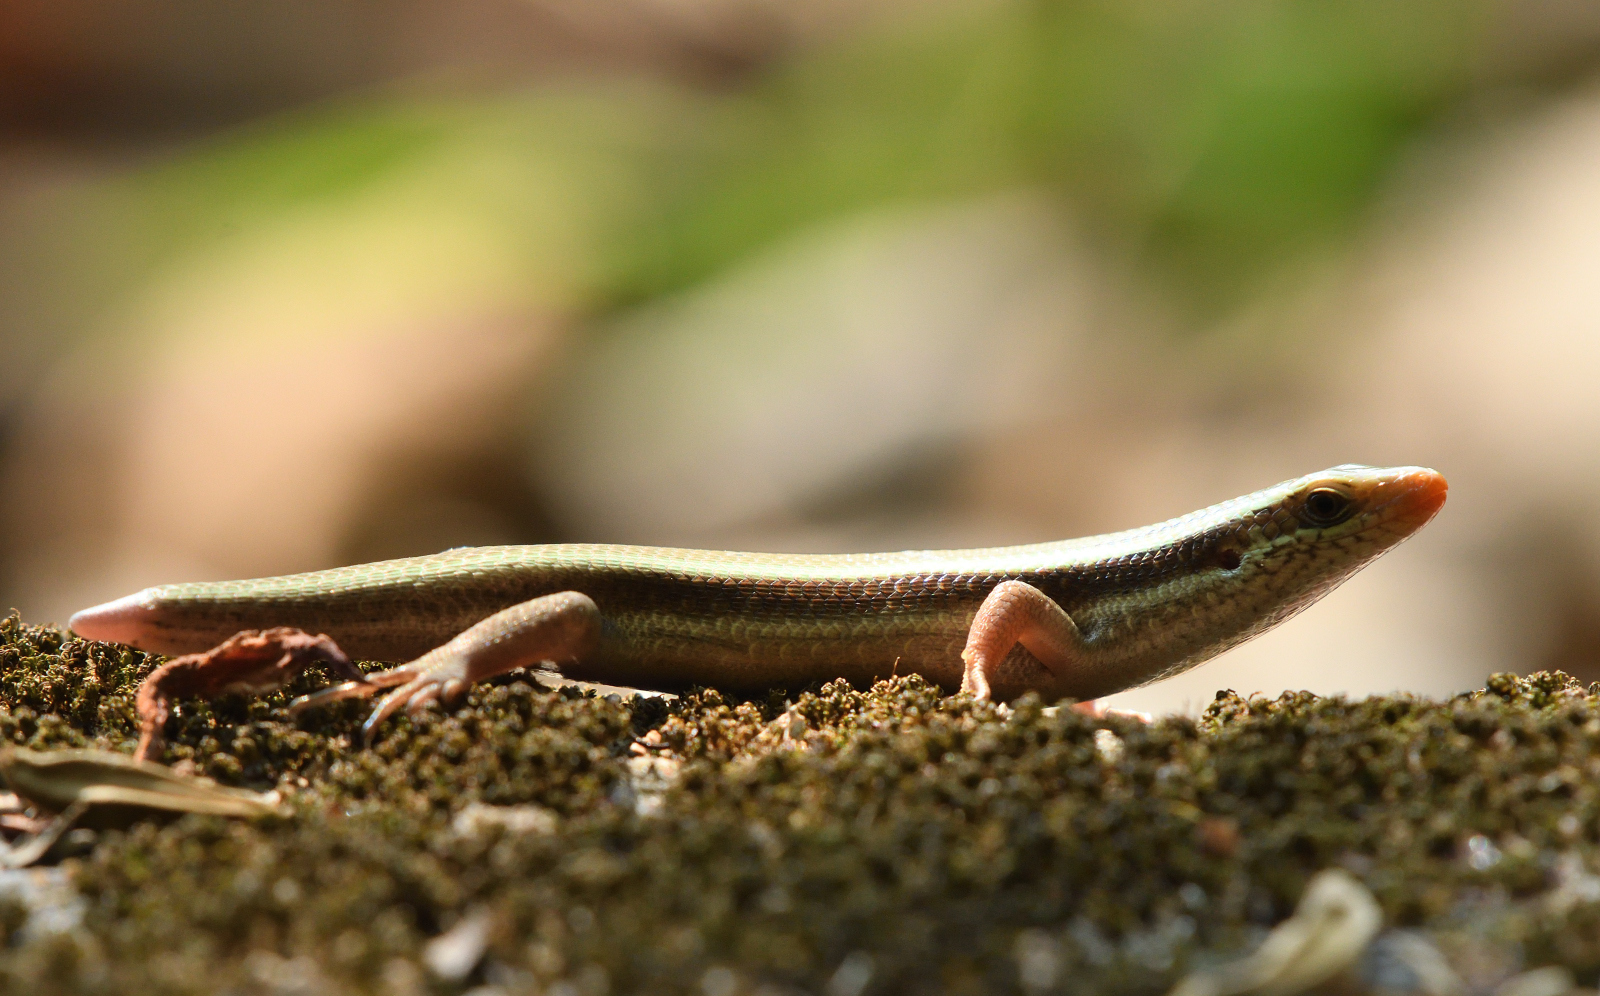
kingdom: Animalia
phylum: Chordata
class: Squamata
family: Scincidae
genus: Eutropis
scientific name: Eutropis carinata
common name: Keeled indian mabuya
